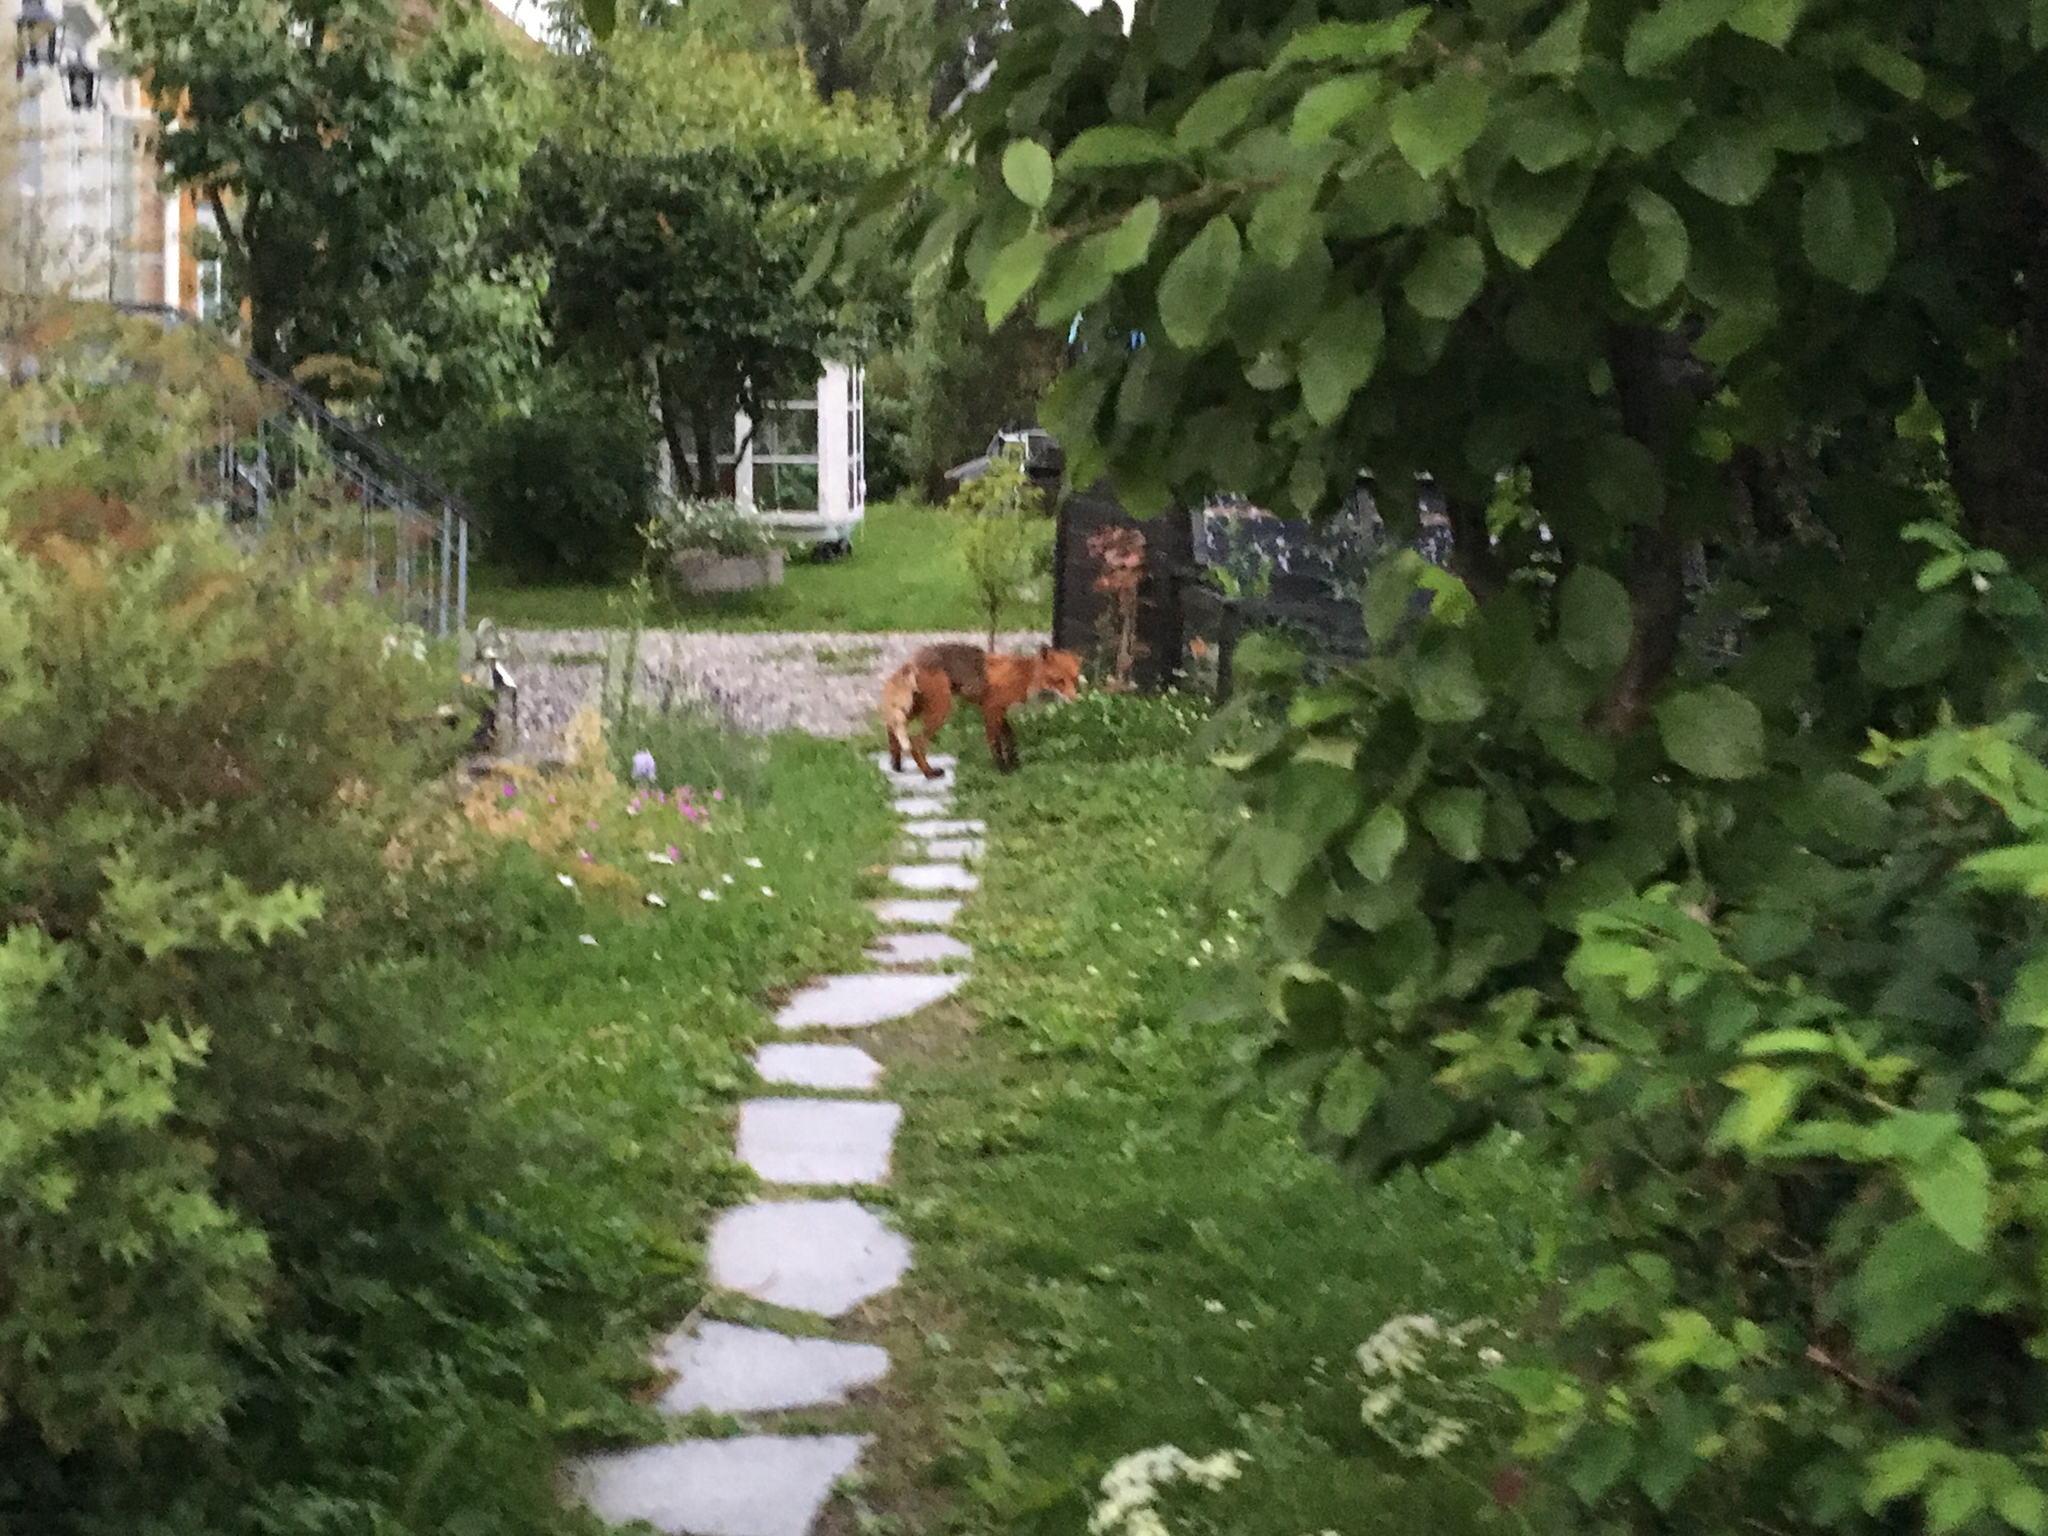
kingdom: Animalia
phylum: Chordata
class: Mammalia
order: Carnivora
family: Canidae
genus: Vulpes
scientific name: Vulpes vulpes
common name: Red fox
